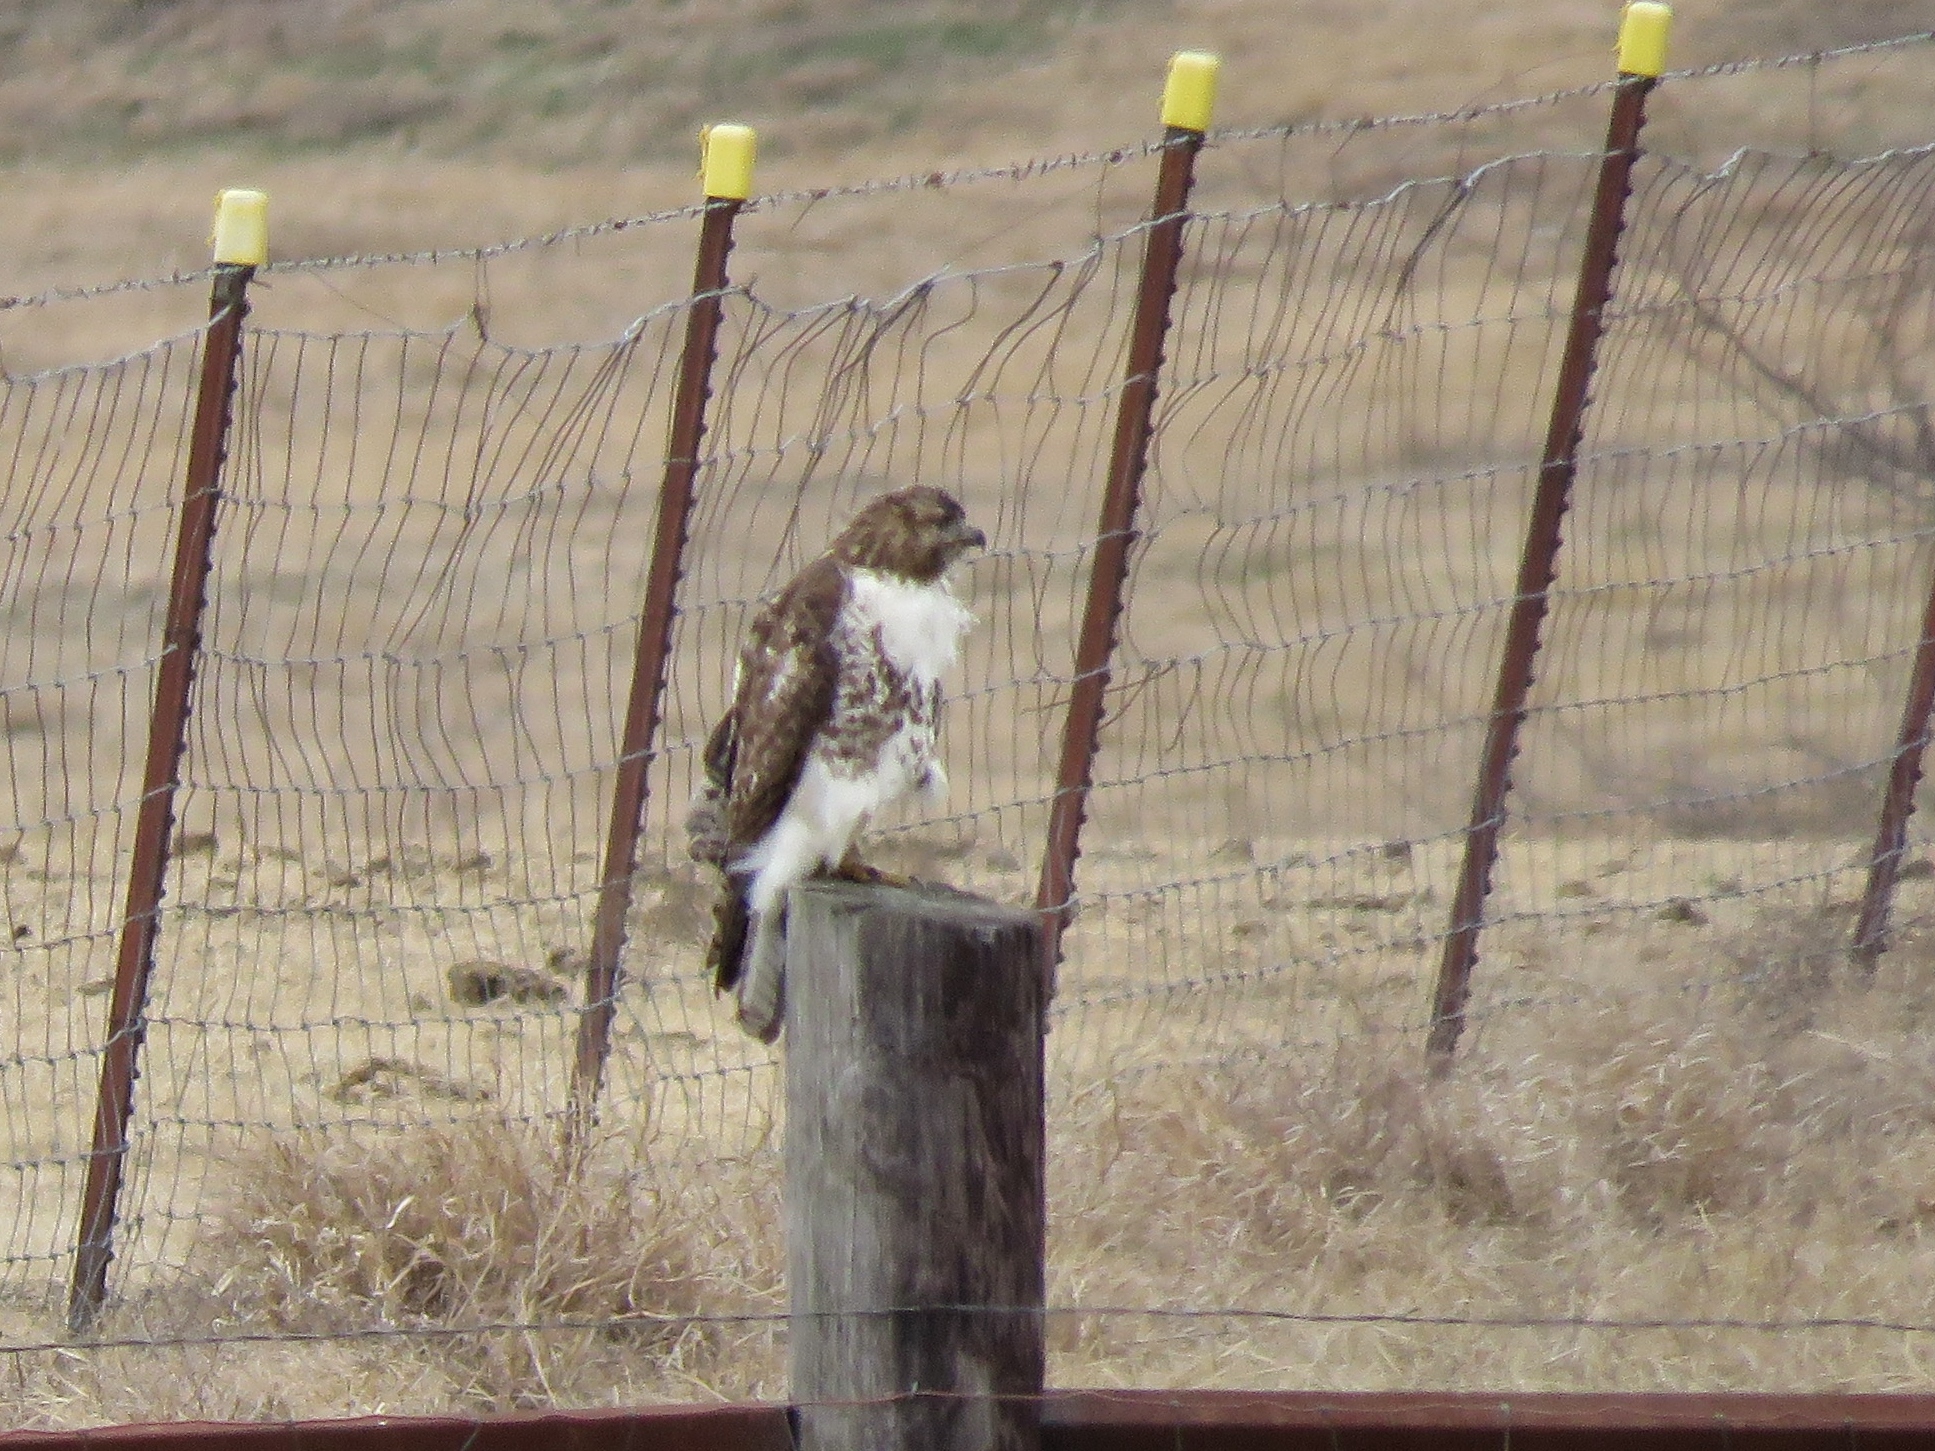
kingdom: Animalia
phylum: Chordata
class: Aves
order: Accipitriformes
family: Accipitridae
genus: Buteo
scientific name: Buteo jamaicensis
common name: Red-tailed hawk
